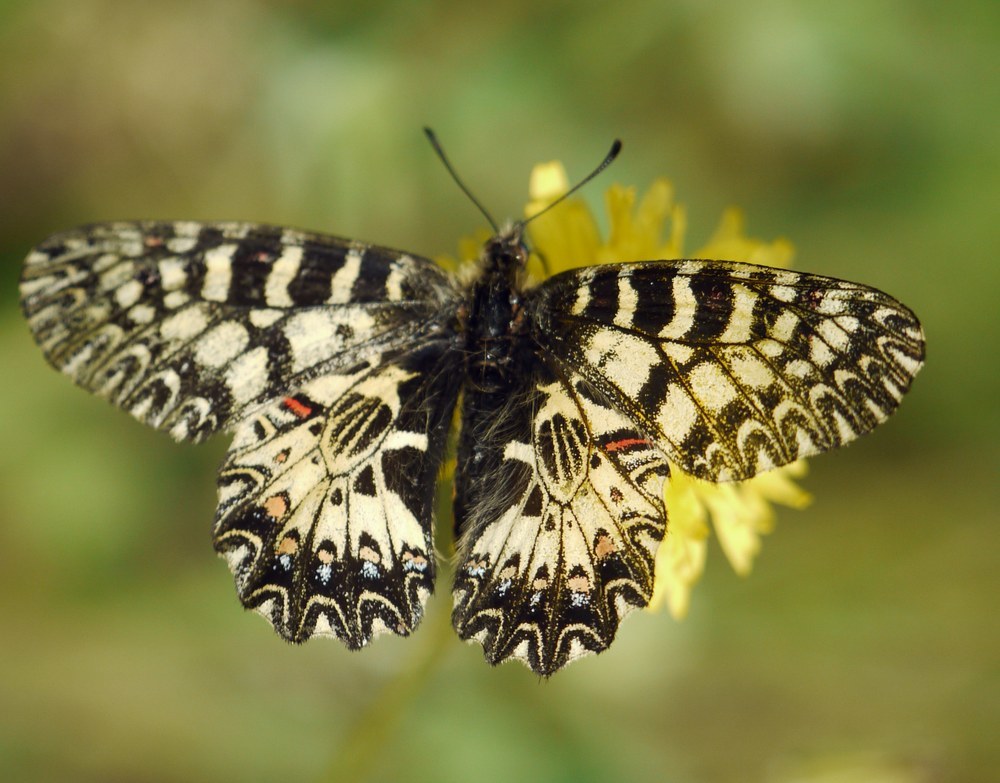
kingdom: Animalia
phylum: Arthropoda
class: Insecta
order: Lepidoptera
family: Papilionidae
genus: Zerynthia
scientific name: Zerynthia polyxena
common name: Southern festoon
